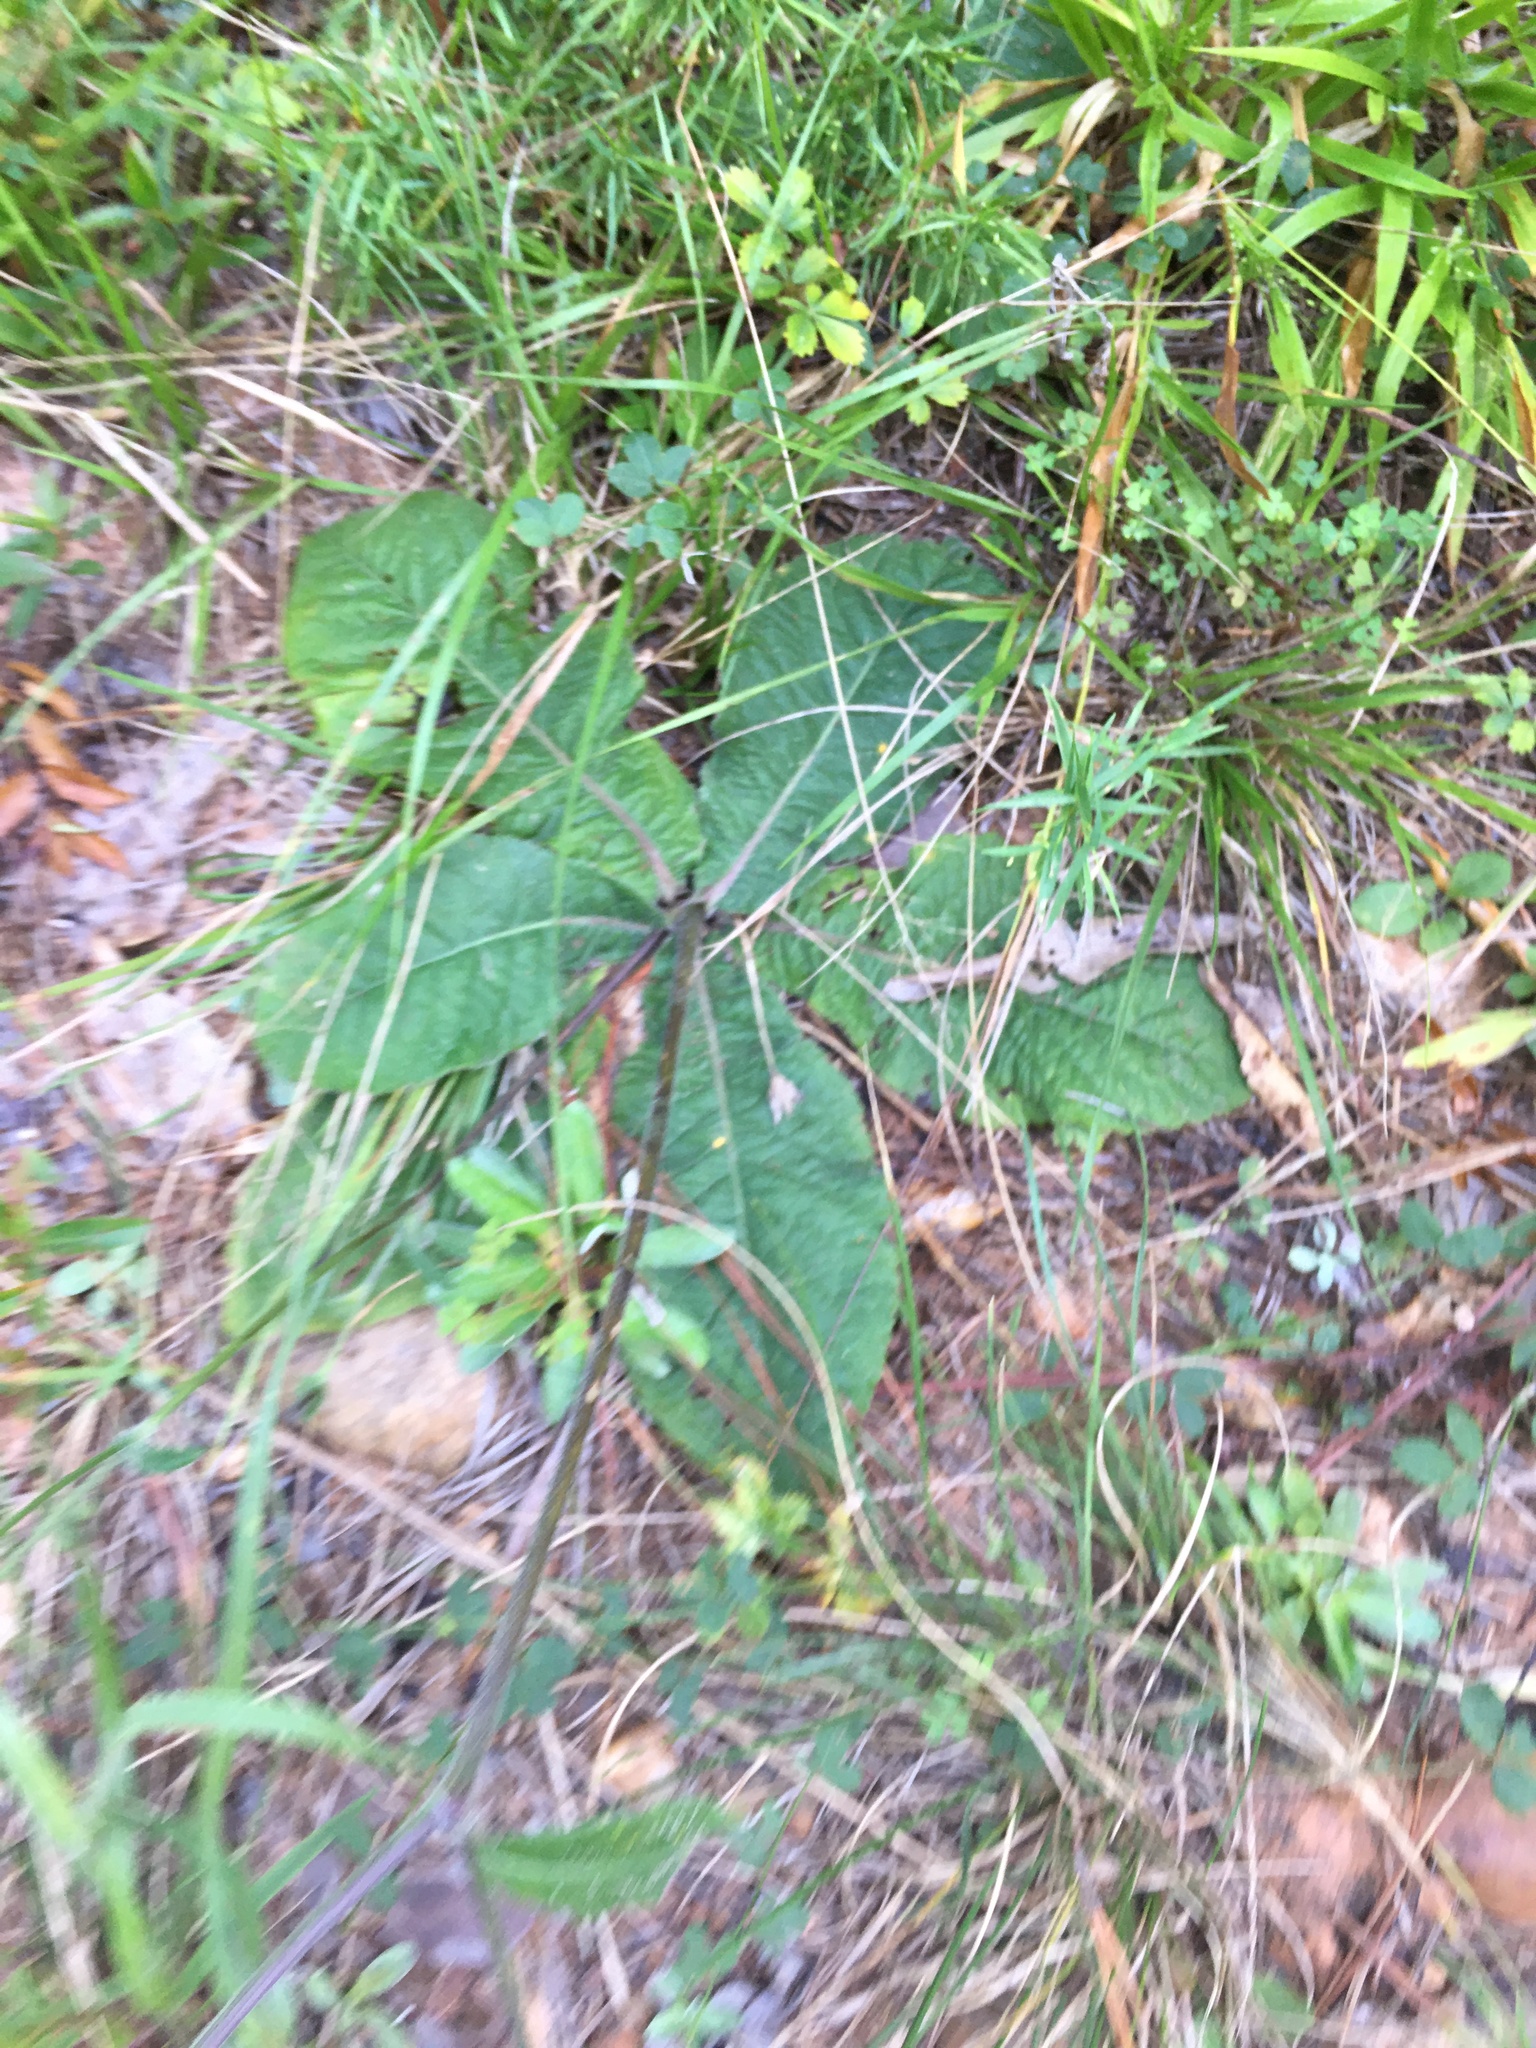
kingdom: Plantae
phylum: Tracheophyta
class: Magnoliopsida
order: Asterales
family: Asteraceae
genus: Elephantopus
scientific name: Elephantopus tomentosus
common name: Tobacco-weed
